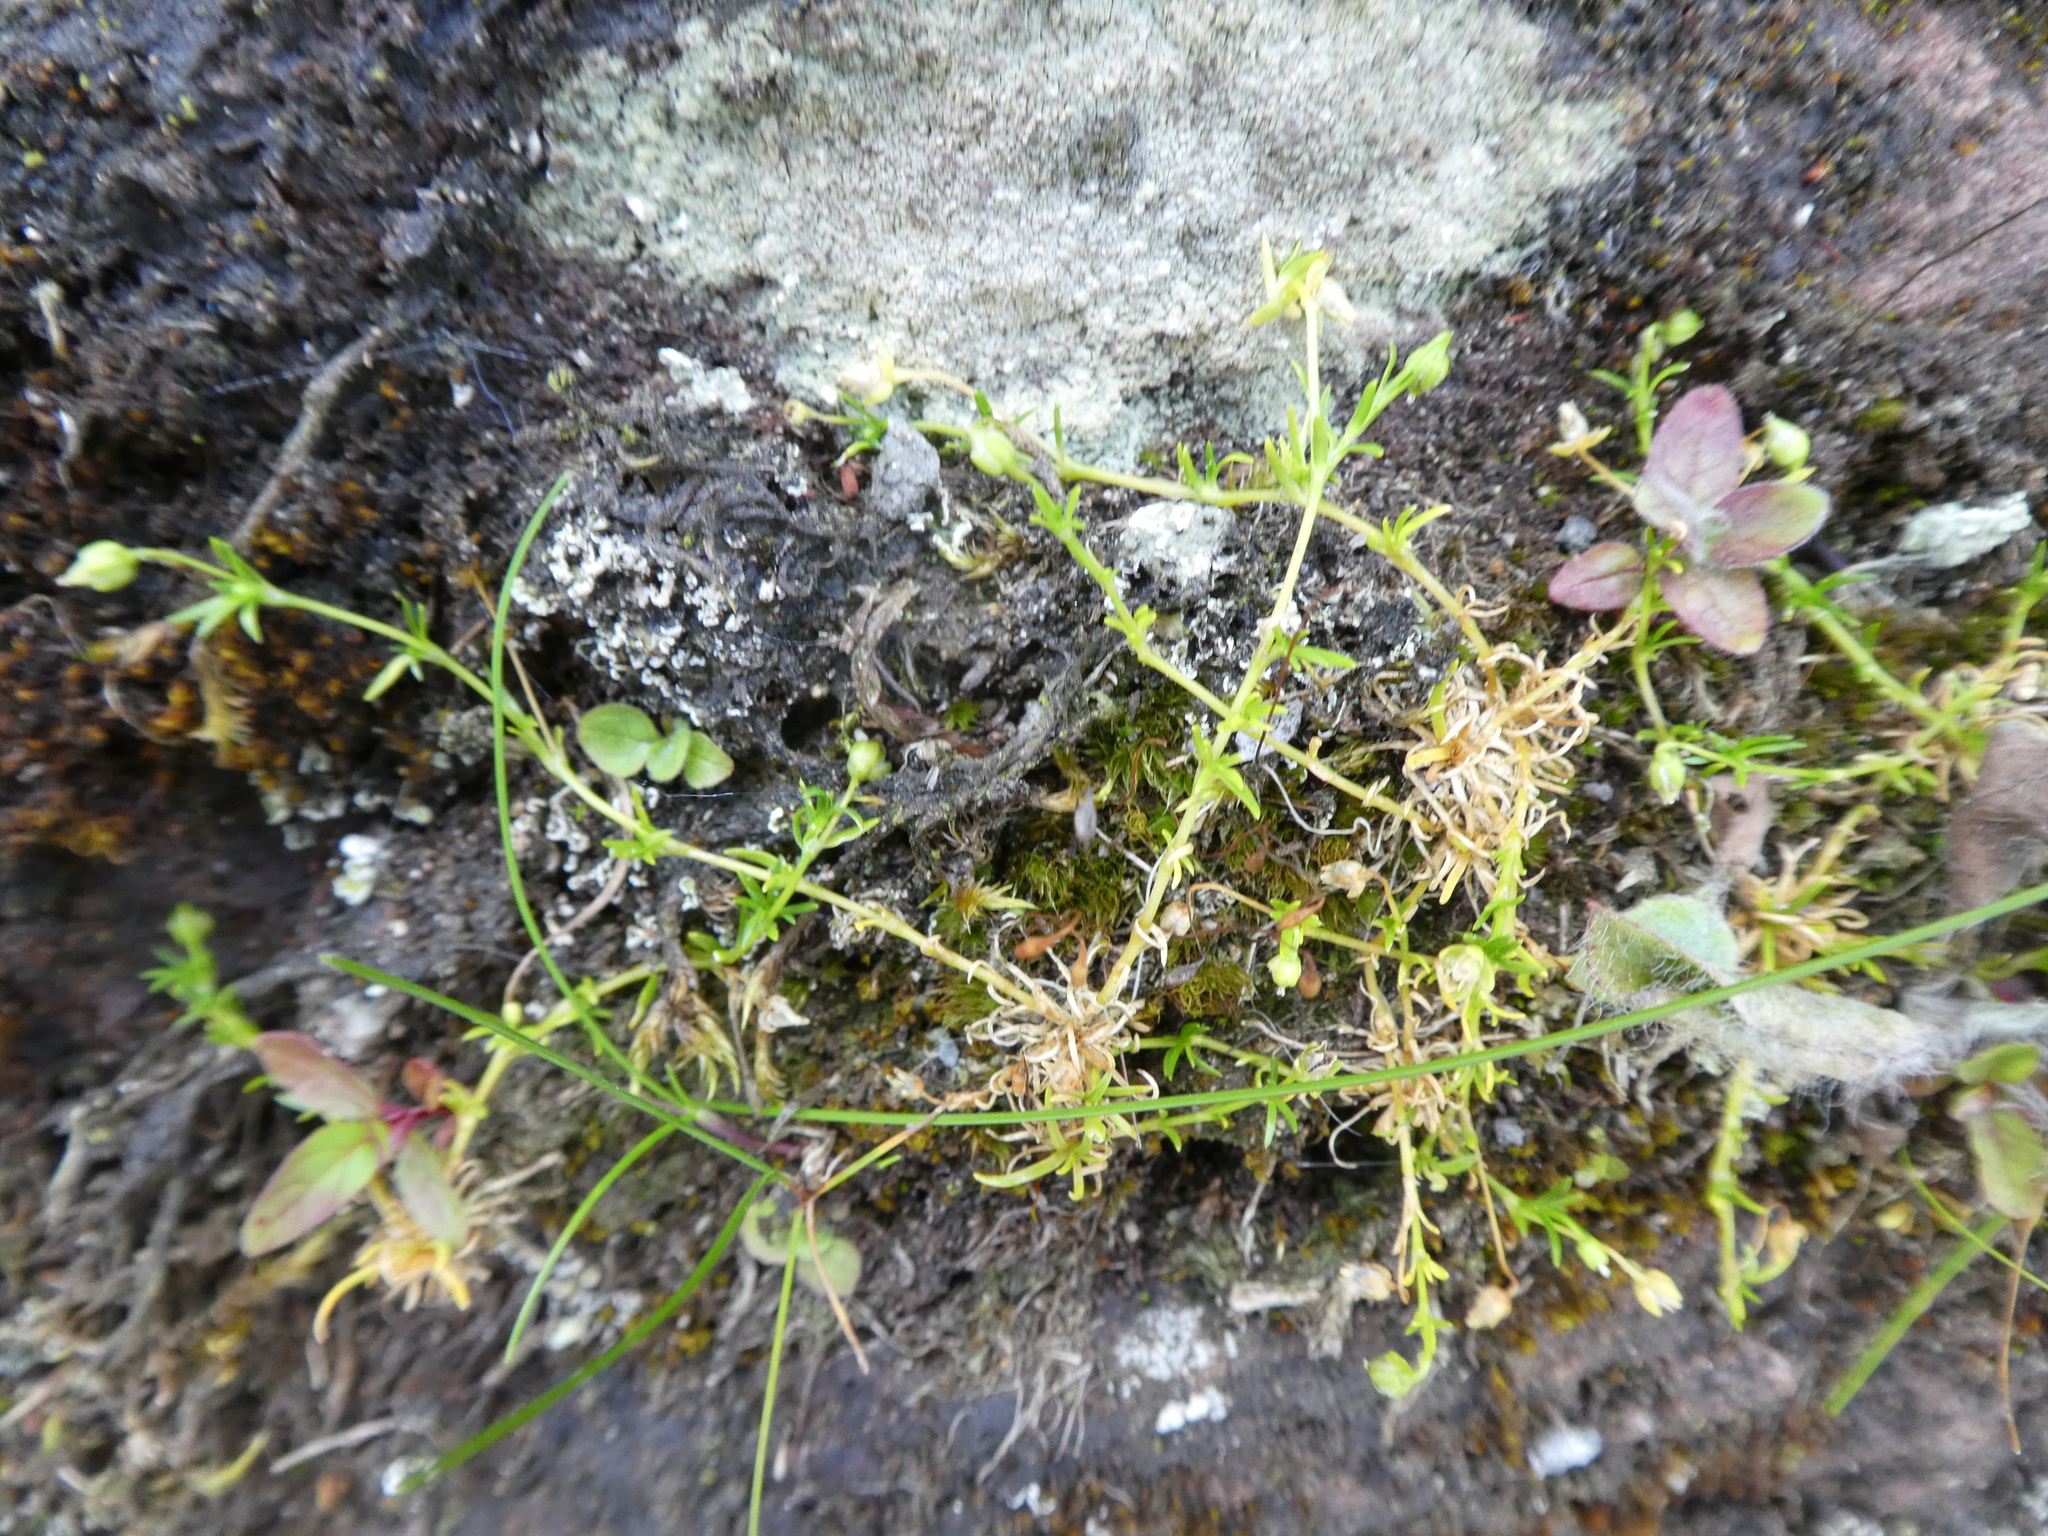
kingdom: Plantae
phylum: Tracheophyta
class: Magnoliopsida
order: Caryophyllales
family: Caryophyllaceae
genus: Sagina
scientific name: Sagina procumbens
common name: Procumbent pearlwort
